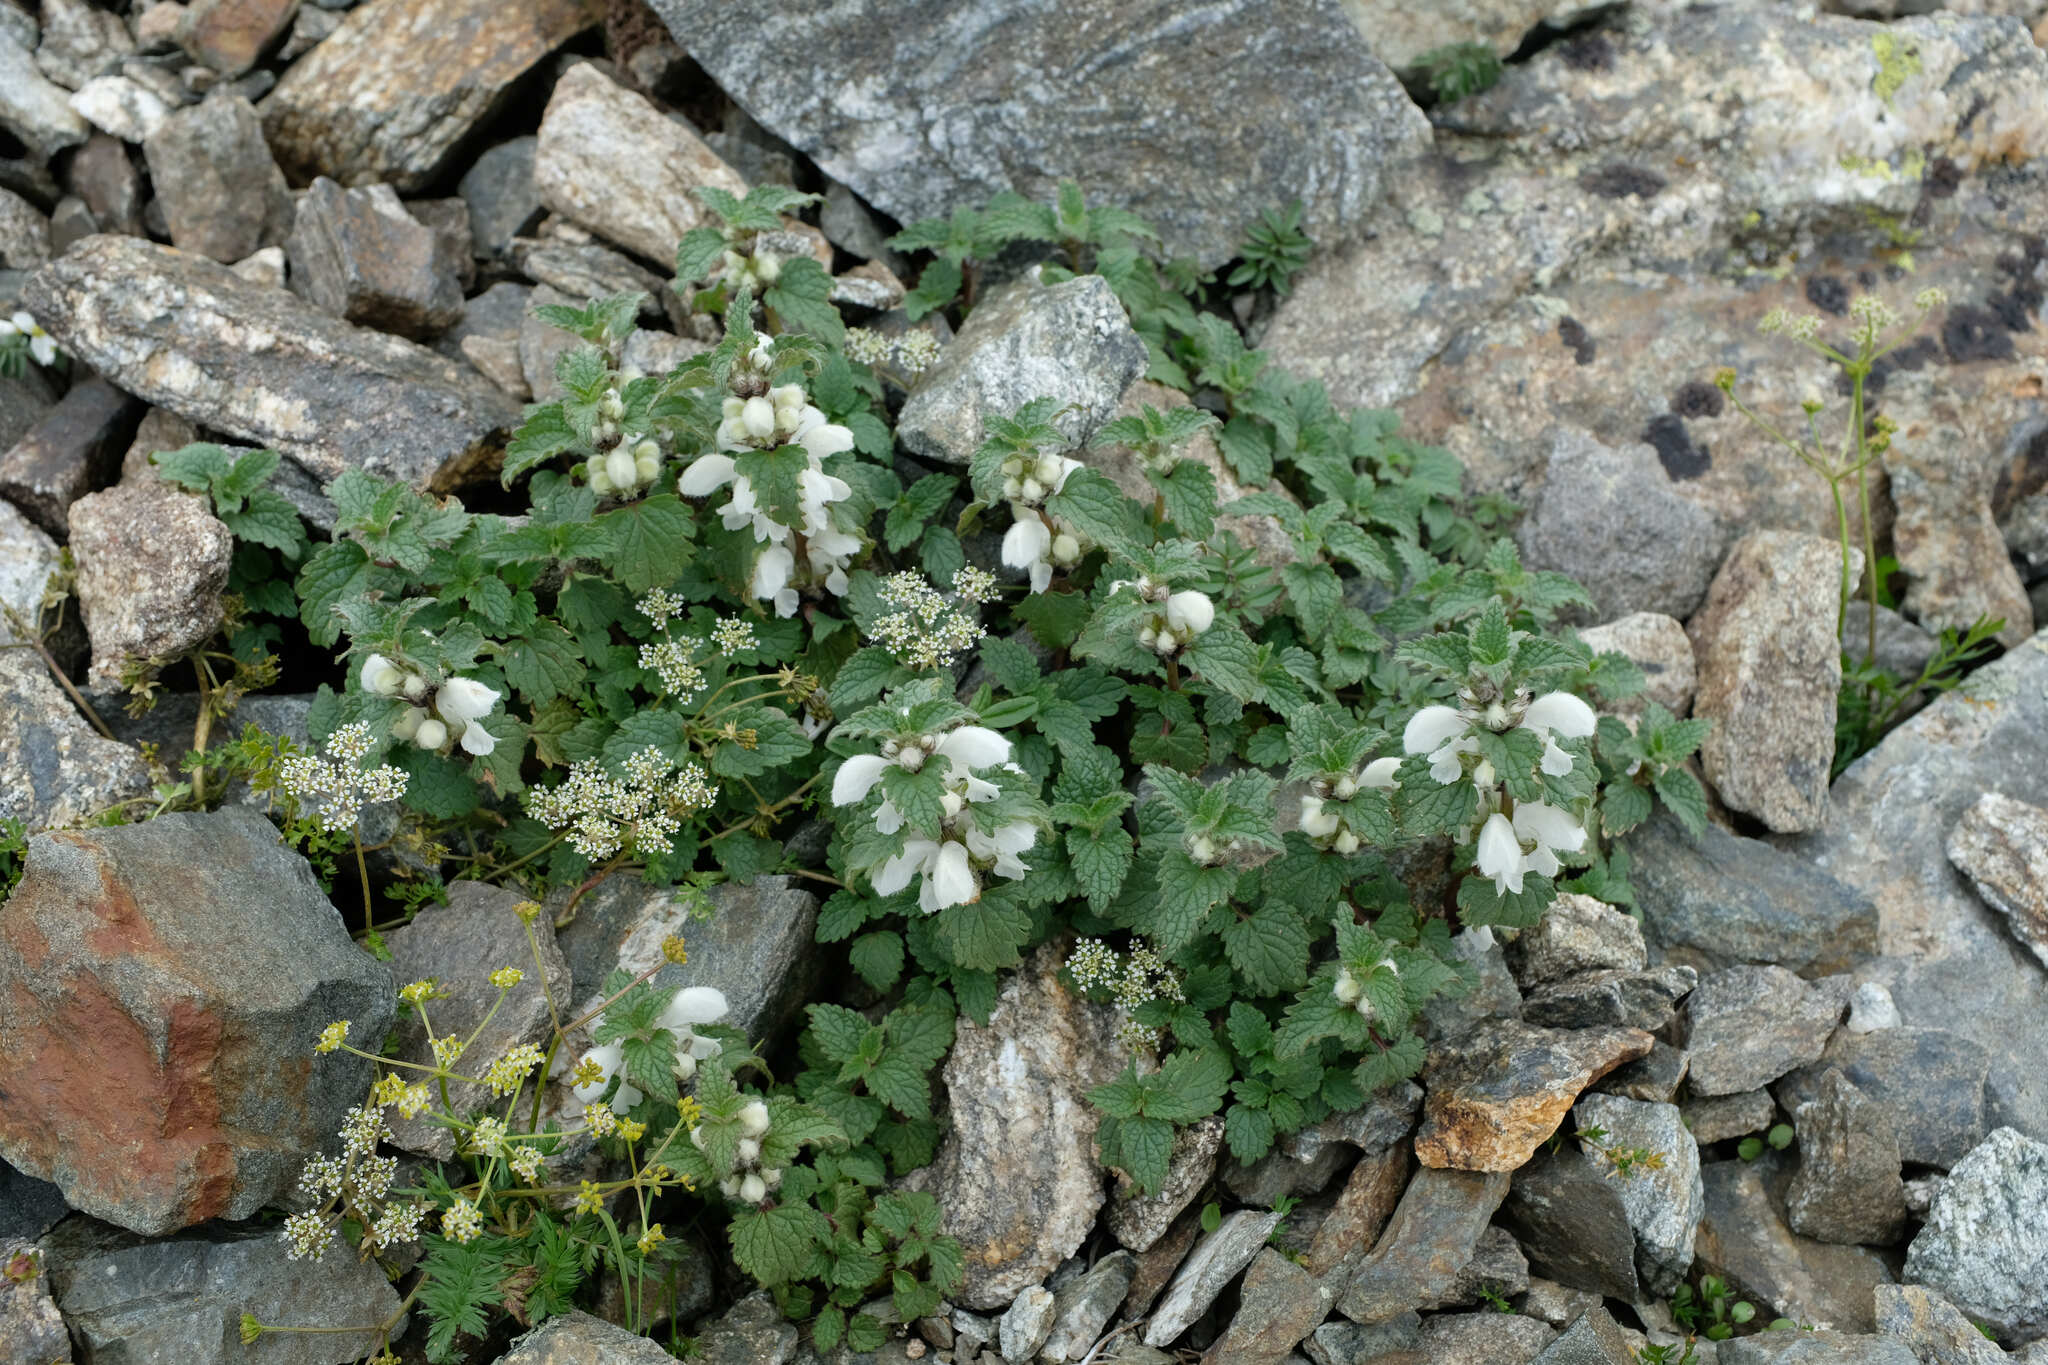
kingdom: Plantae
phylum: Tracheophyta
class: Magnoliopsida
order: Lamiales
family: Lamiaceae
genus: Lamium
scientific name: Lamium tomentosum
